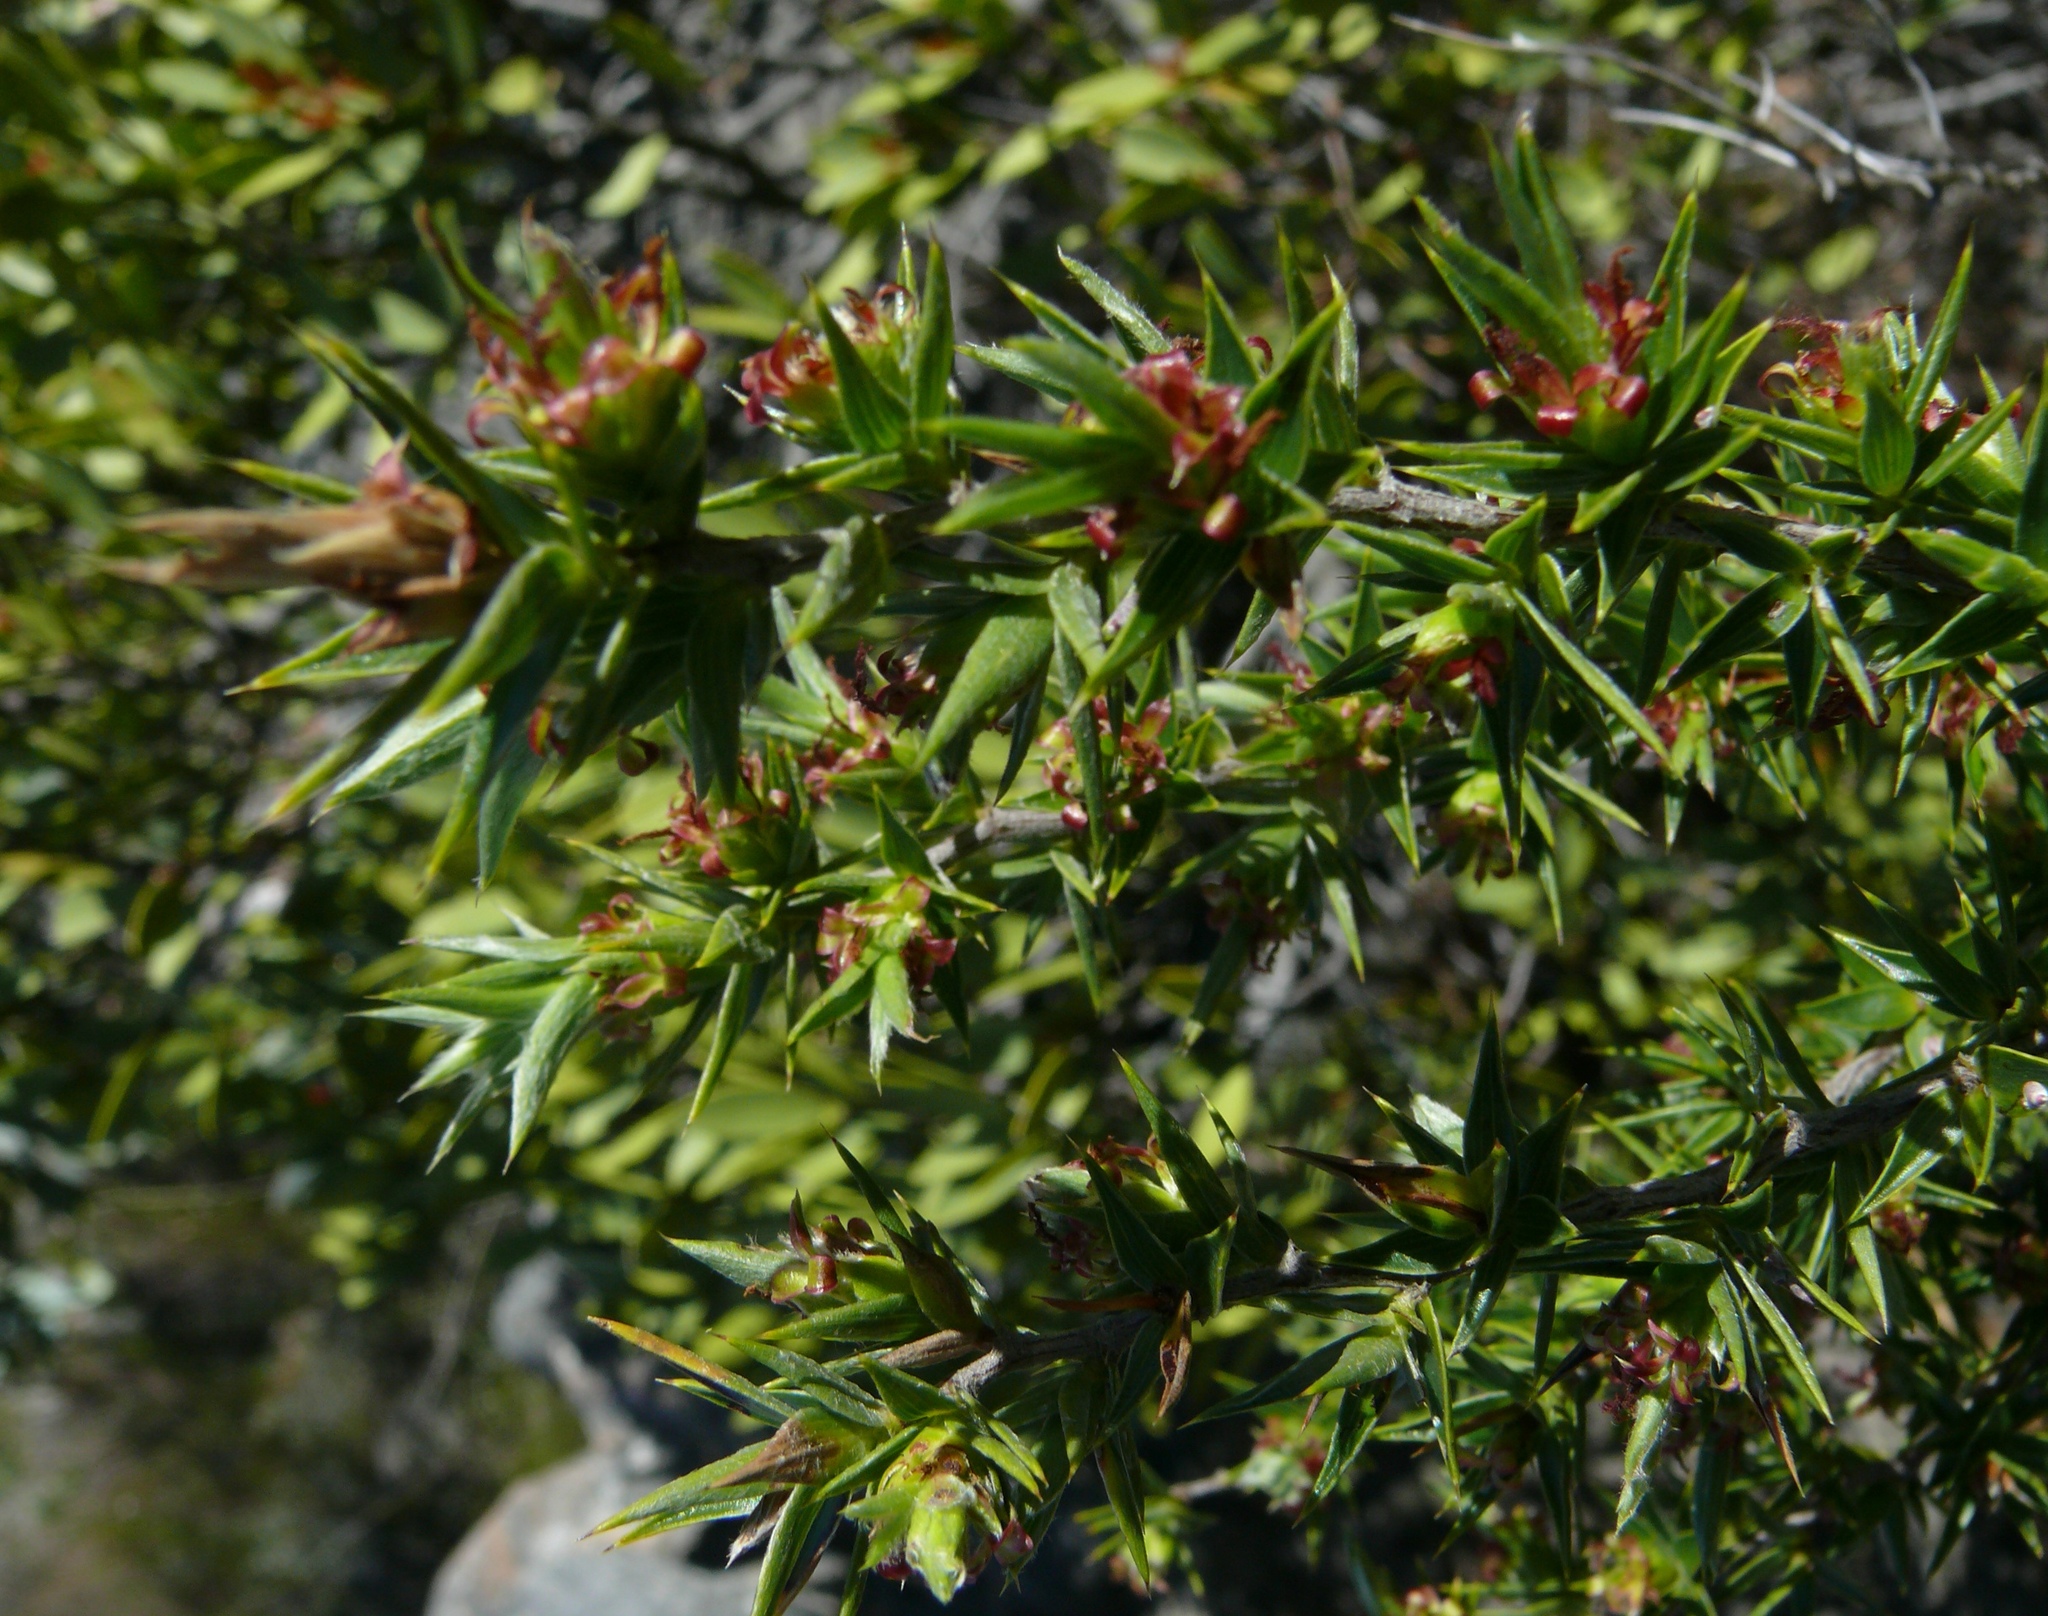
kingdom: Plantae
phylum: Tracheophyta
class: Magnoliopsida
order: Rosales
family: Rosaceae
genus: Cliffortia
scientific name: Cliffortia ruscifolia
